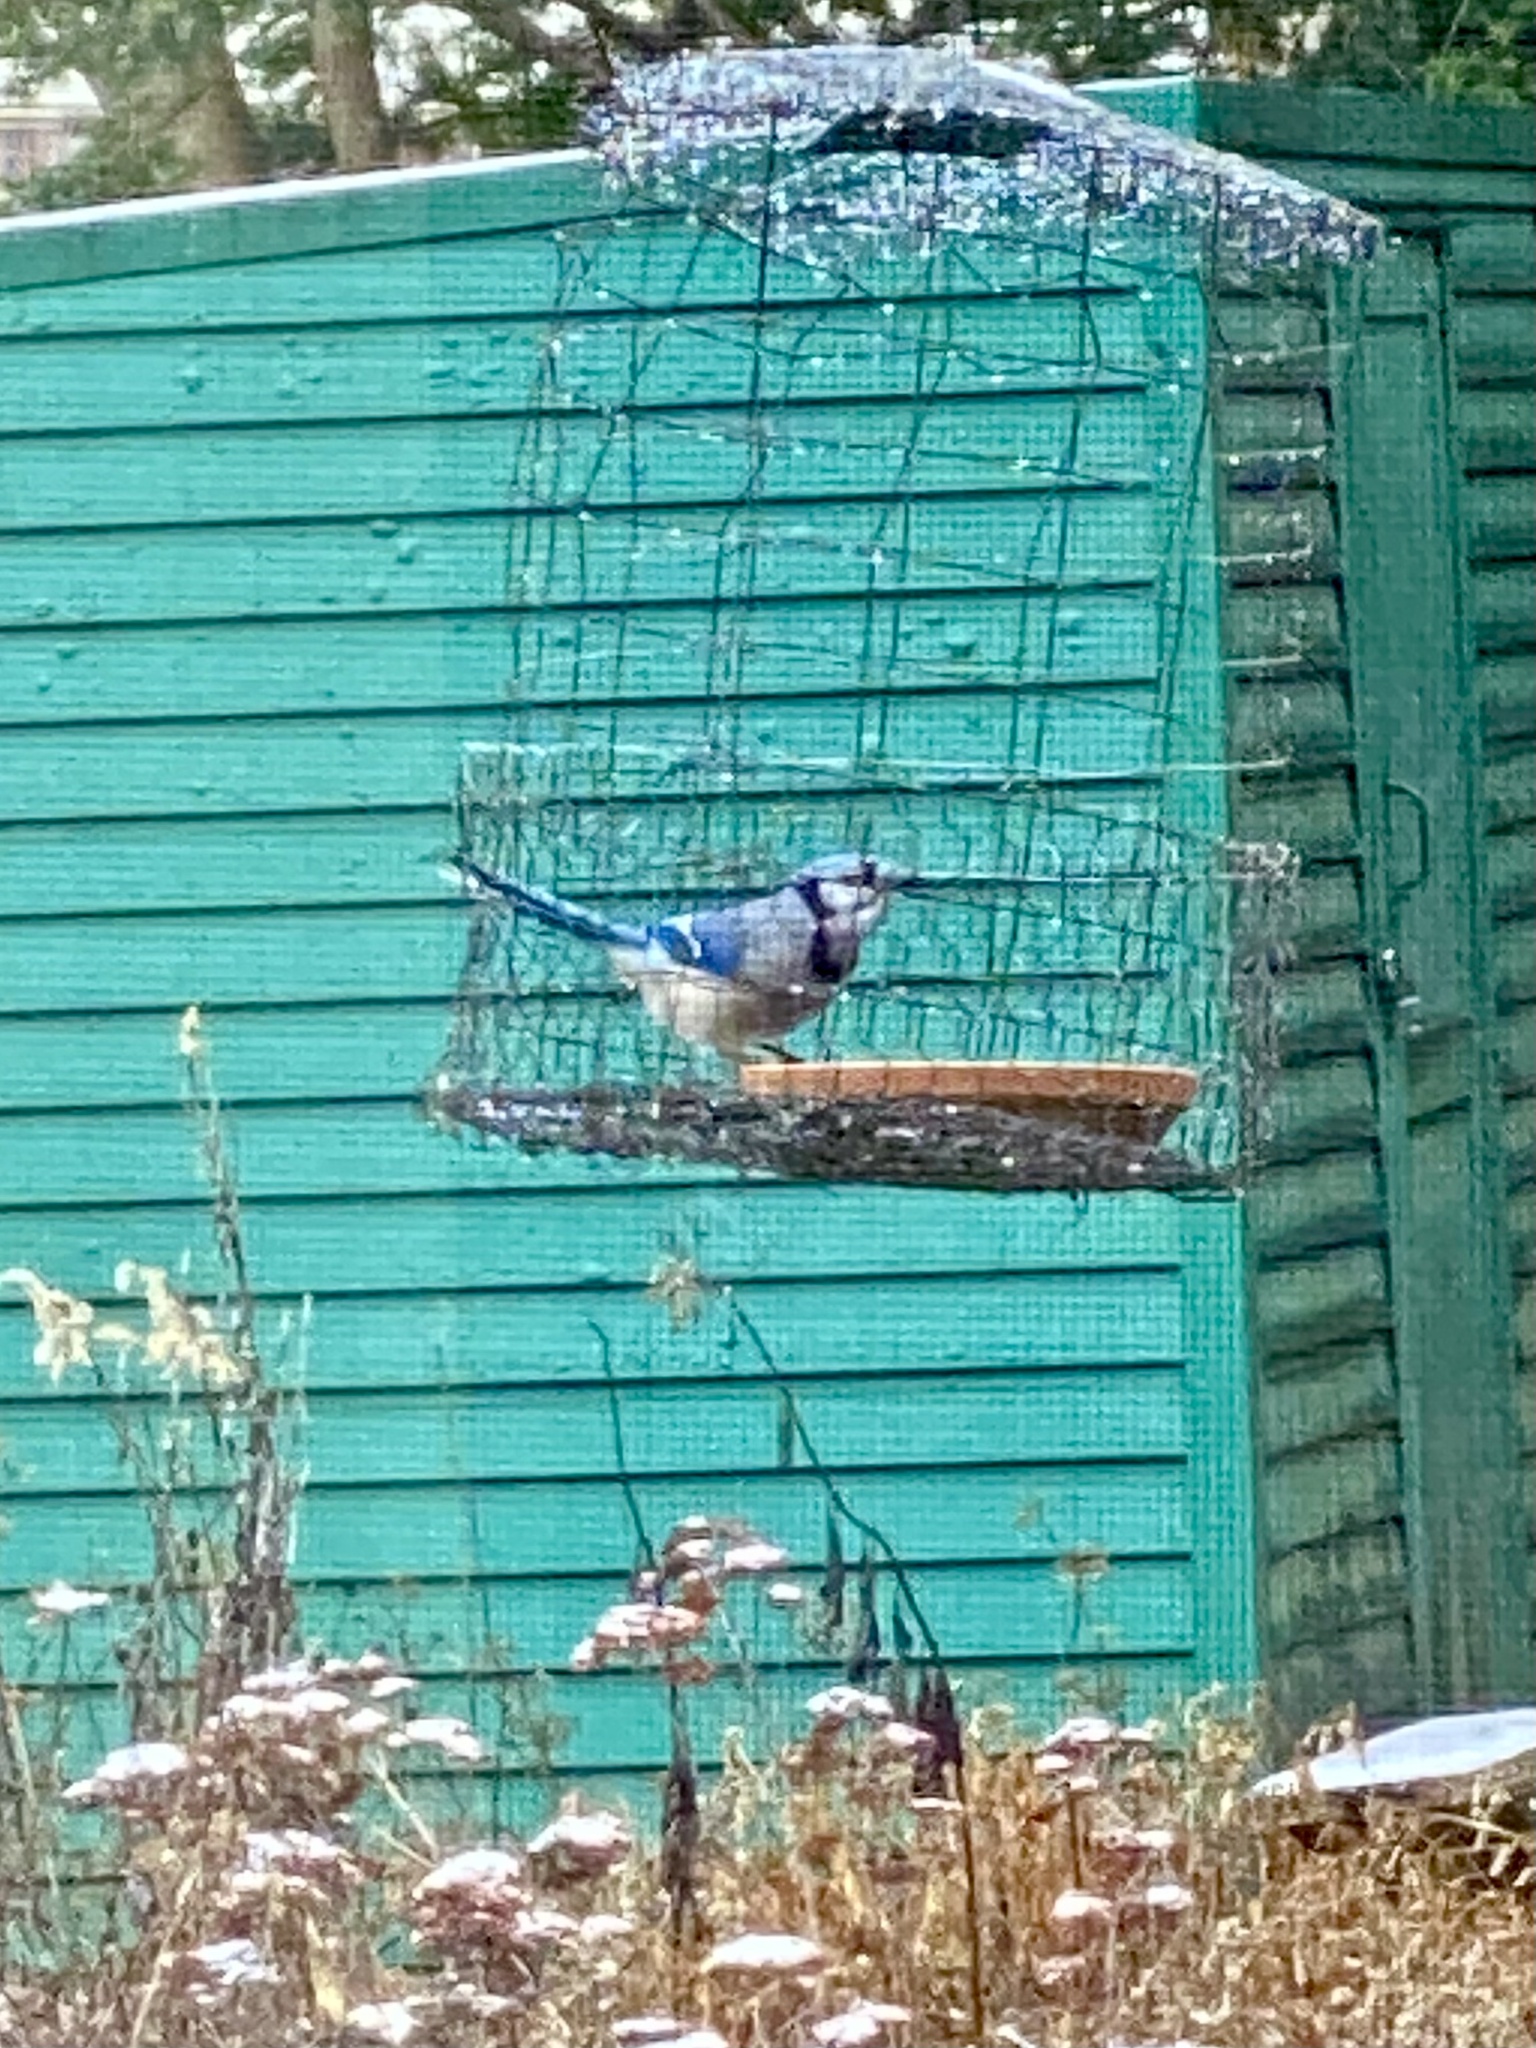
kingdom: Animalia
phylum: Chordata
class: Aves
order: Passeriformes
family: Corvidae
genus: Cyanocitta
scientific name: Cyanocitta cristata
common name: Blue jay
